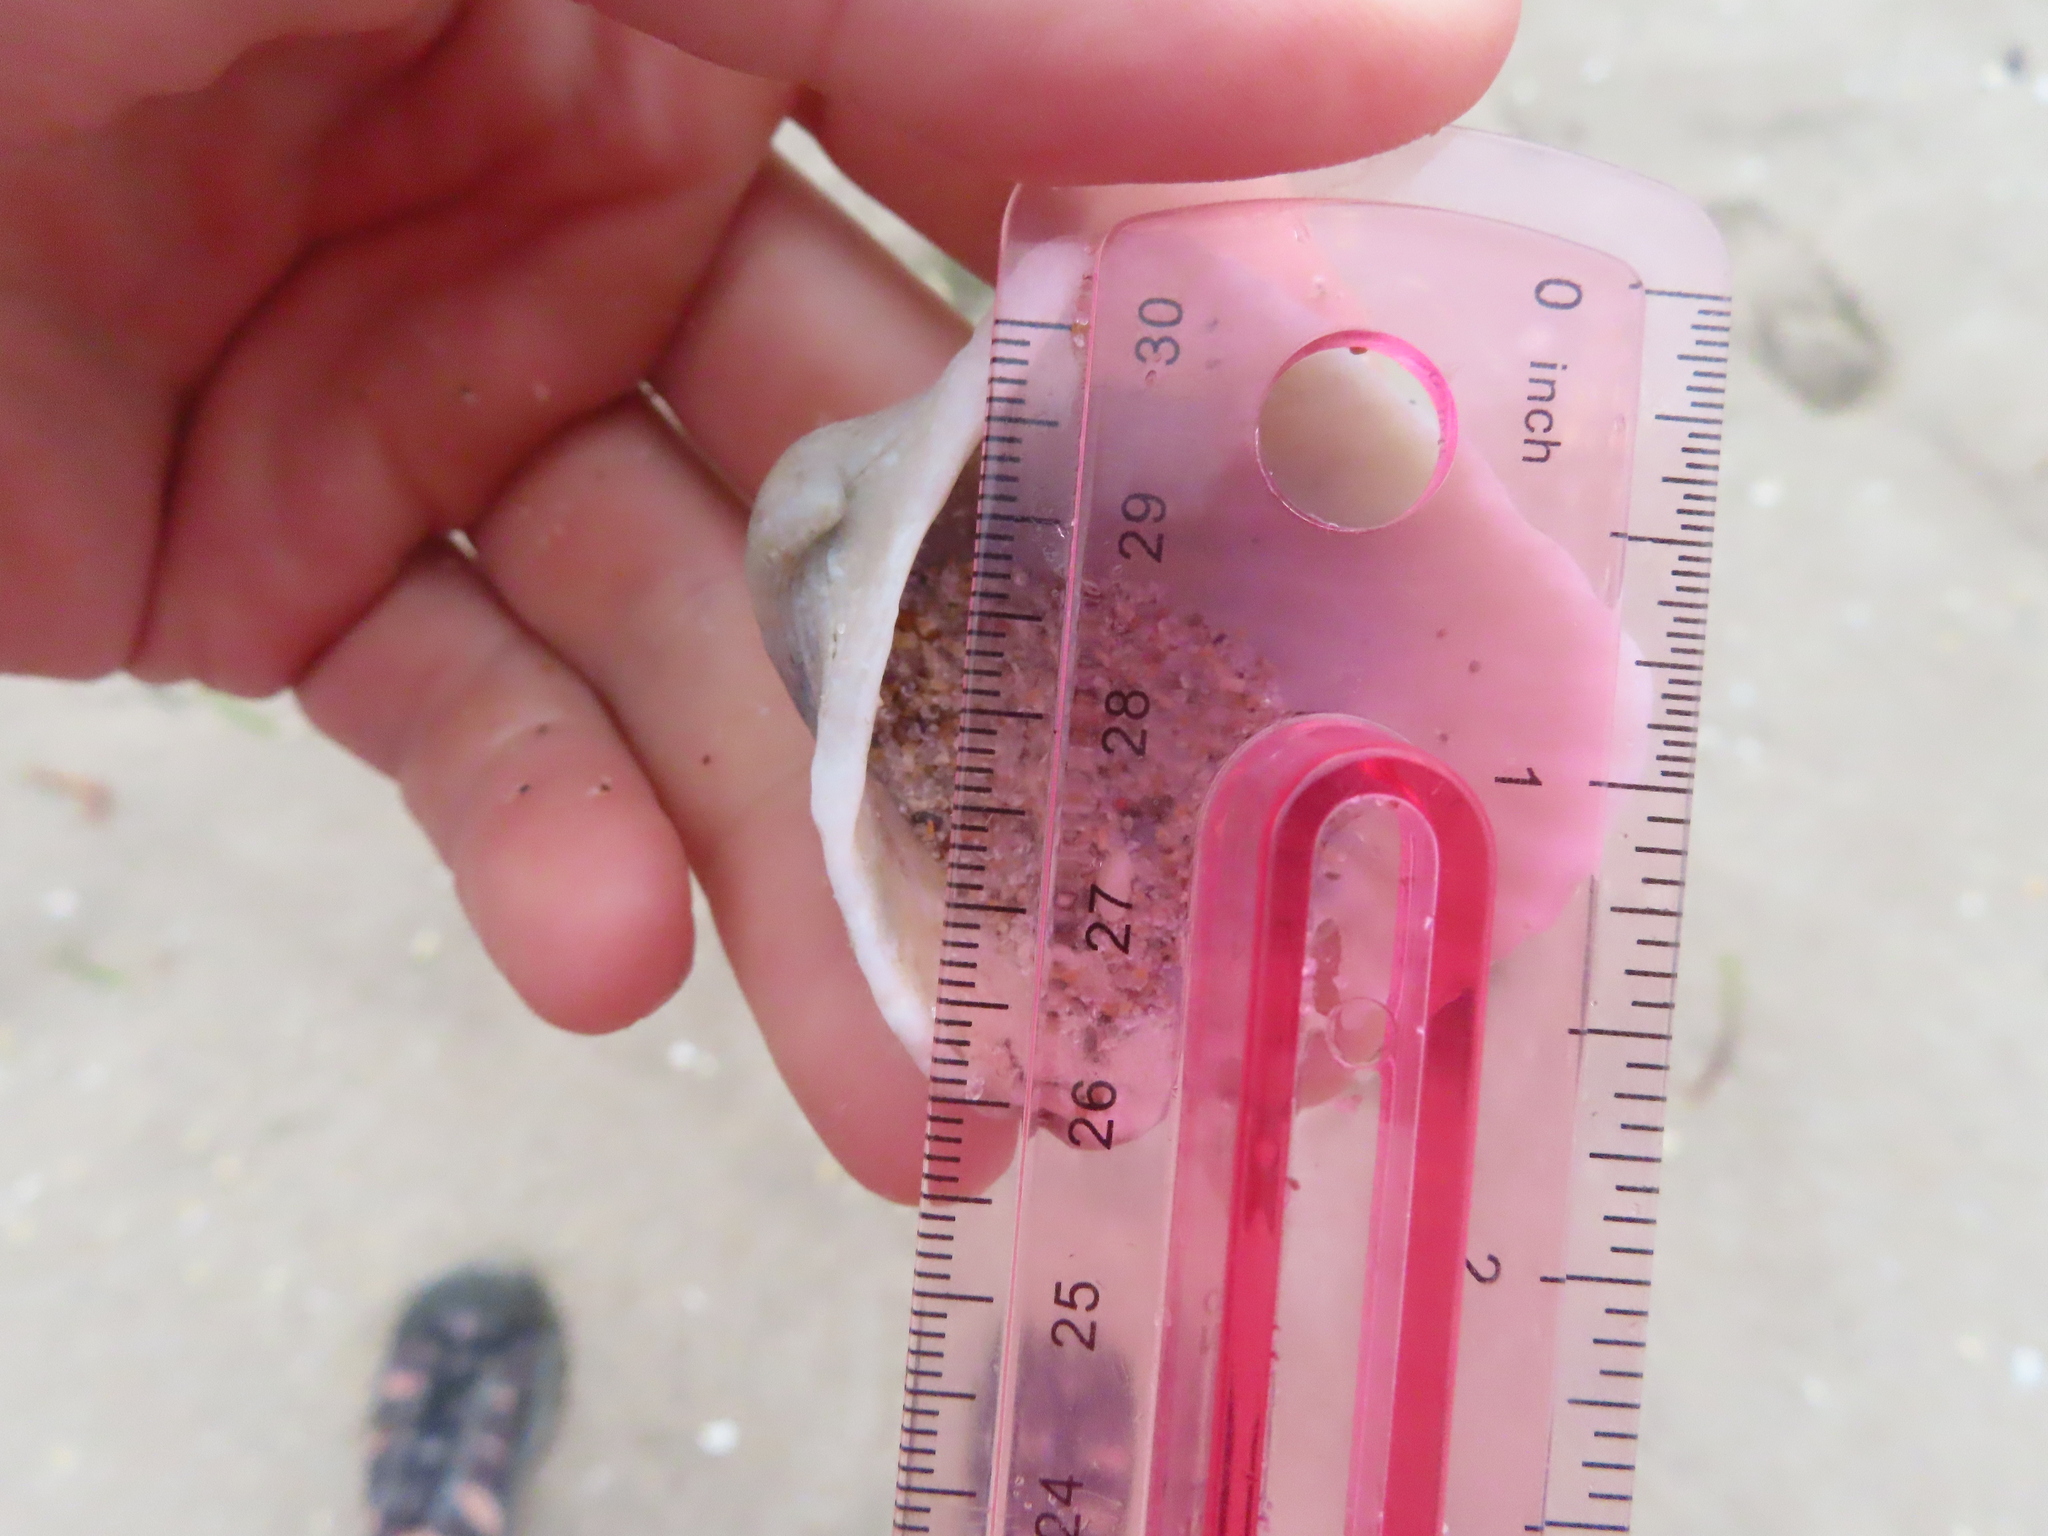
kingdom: Animalia
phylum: Mollusca
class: Bivalvia
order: Arcida
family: Arcidae
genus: Anadara
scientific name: Anadara brasiliana
